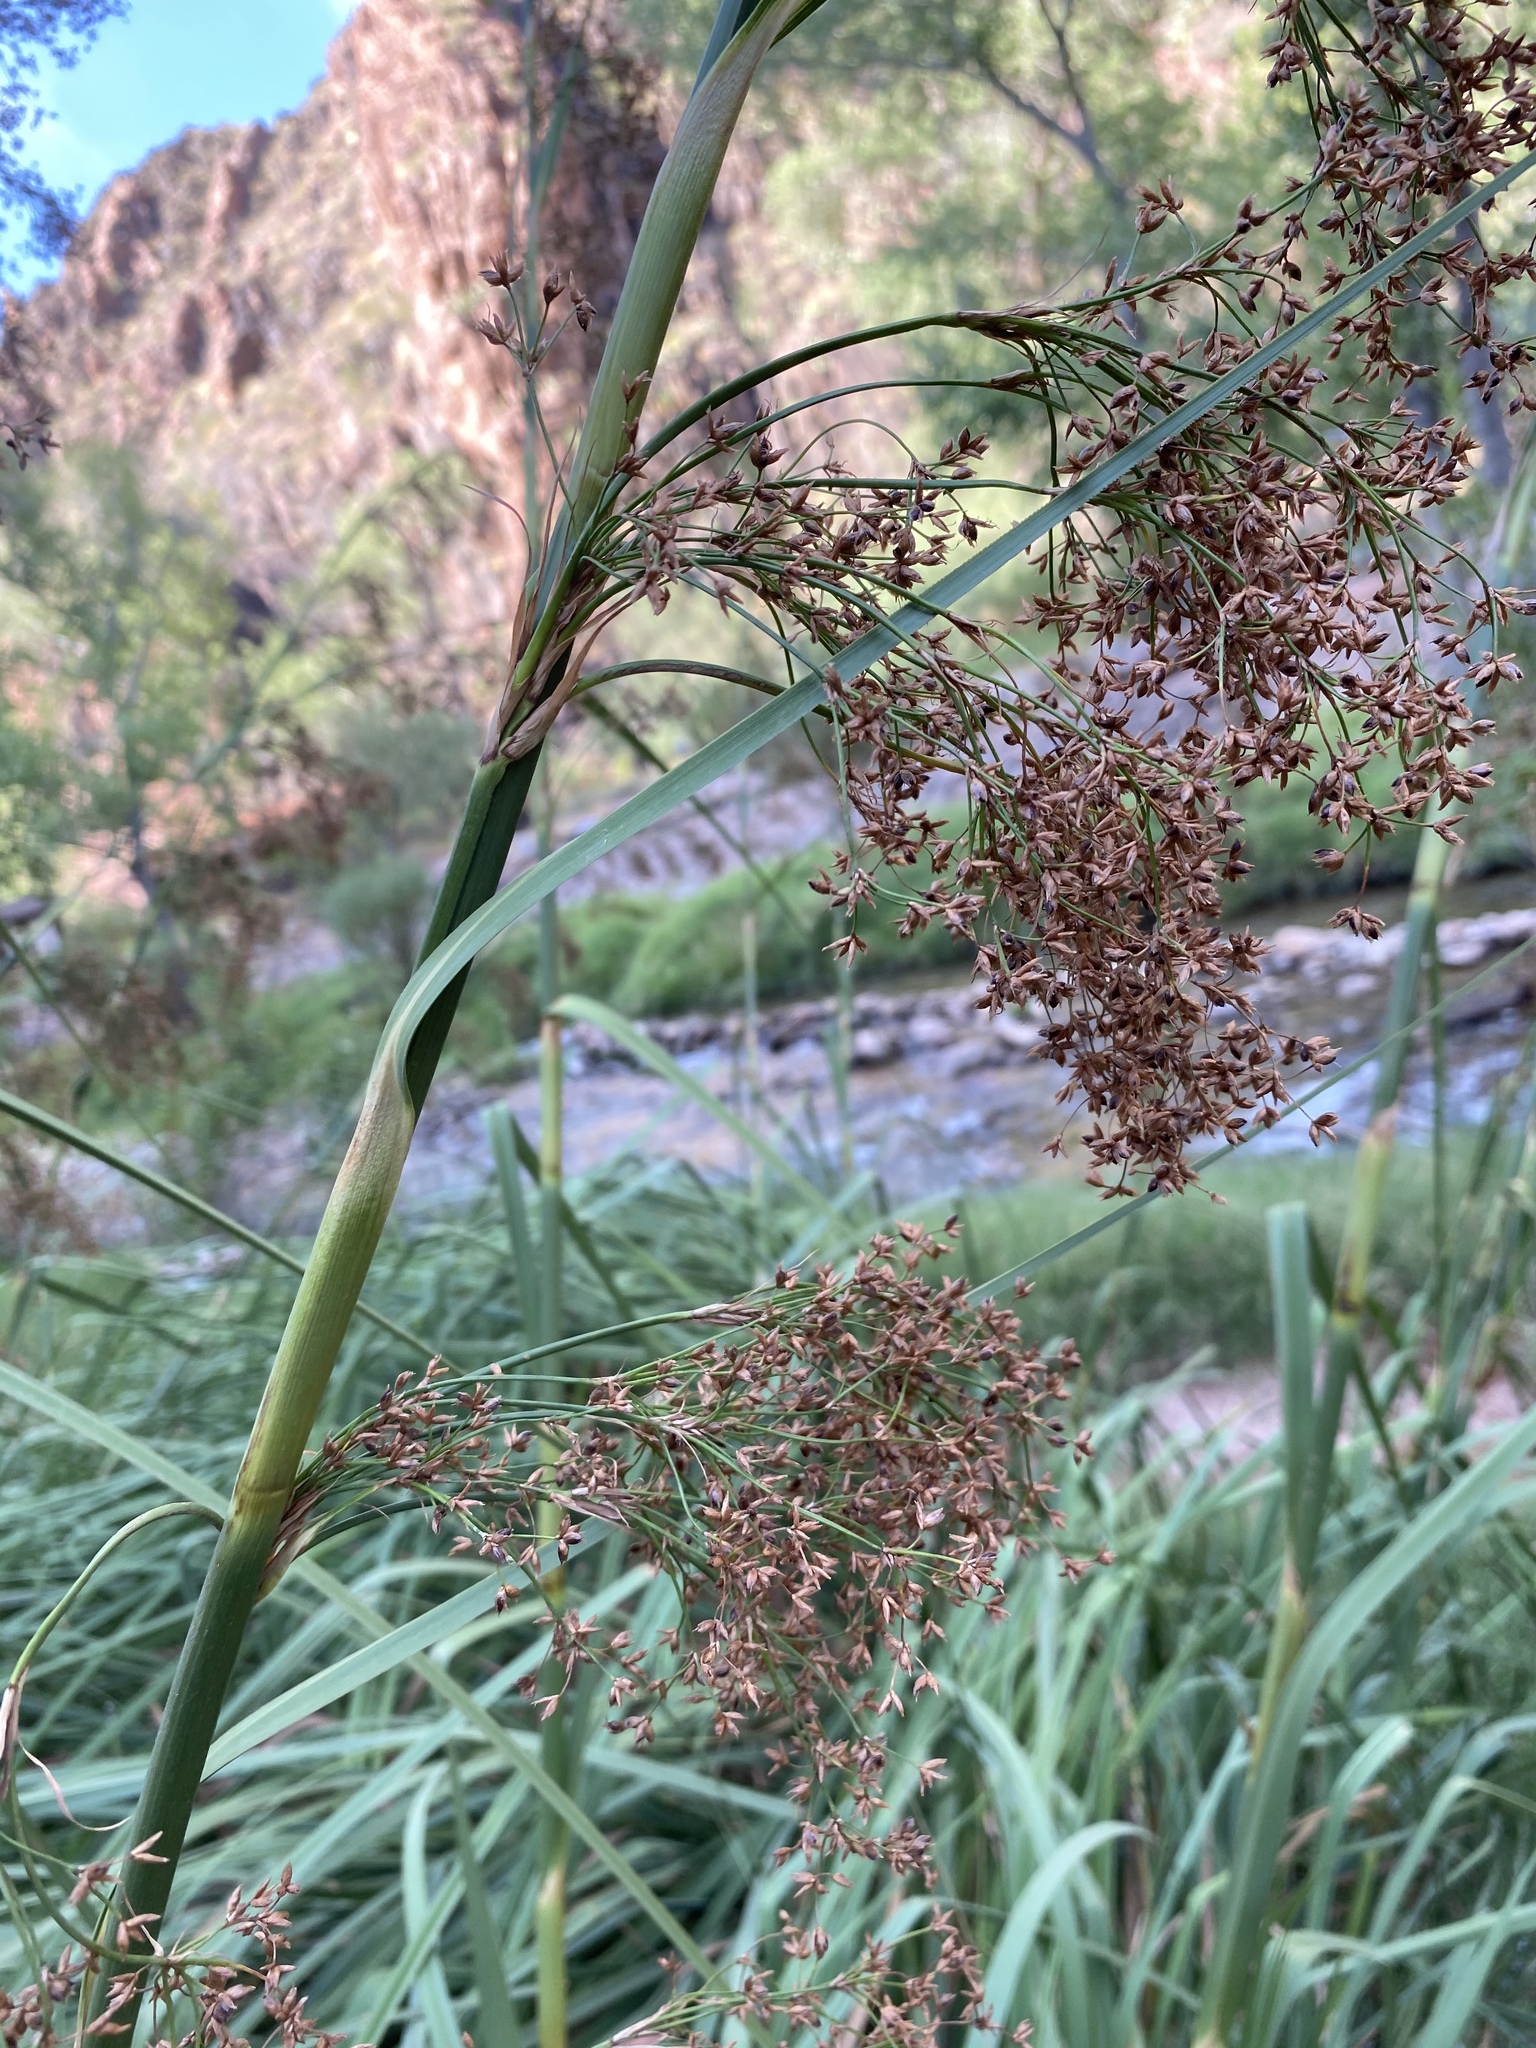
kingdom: Plantae
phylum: Tracheophyta
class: Liliopsida
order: Poales
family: Cyperaceae
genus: Cladium
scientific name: Cladium mariscus
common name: Great fen-sedge
